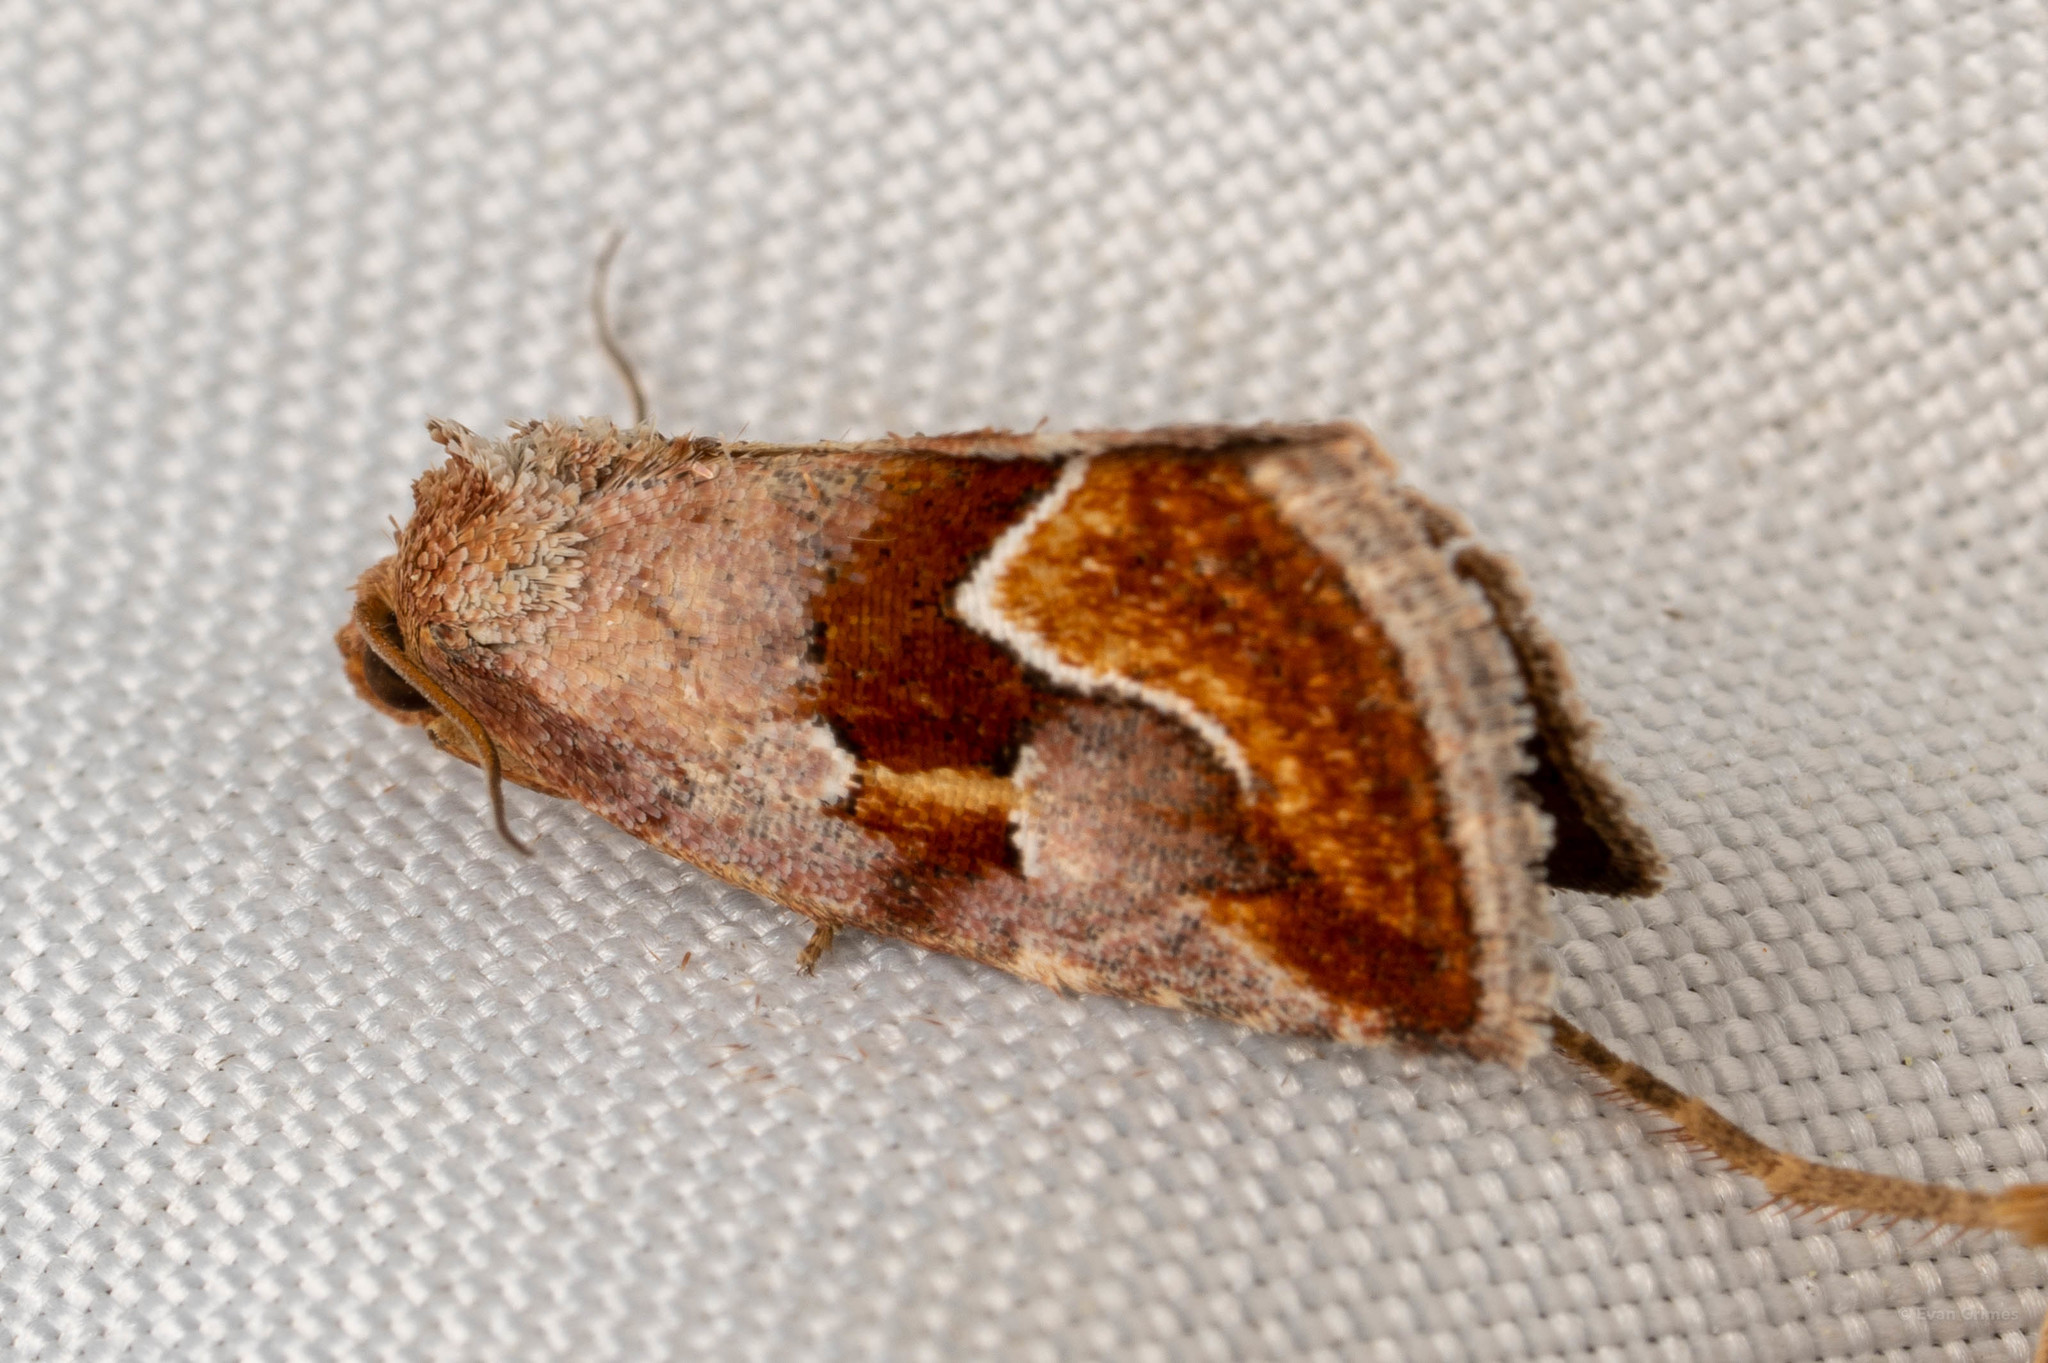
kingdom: Animalia
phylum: Arthropoda
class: Insecta
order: Lepidoptera
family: Noctuidae
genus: Deltote
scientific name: Deltote bellicula
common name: Bog glyph
